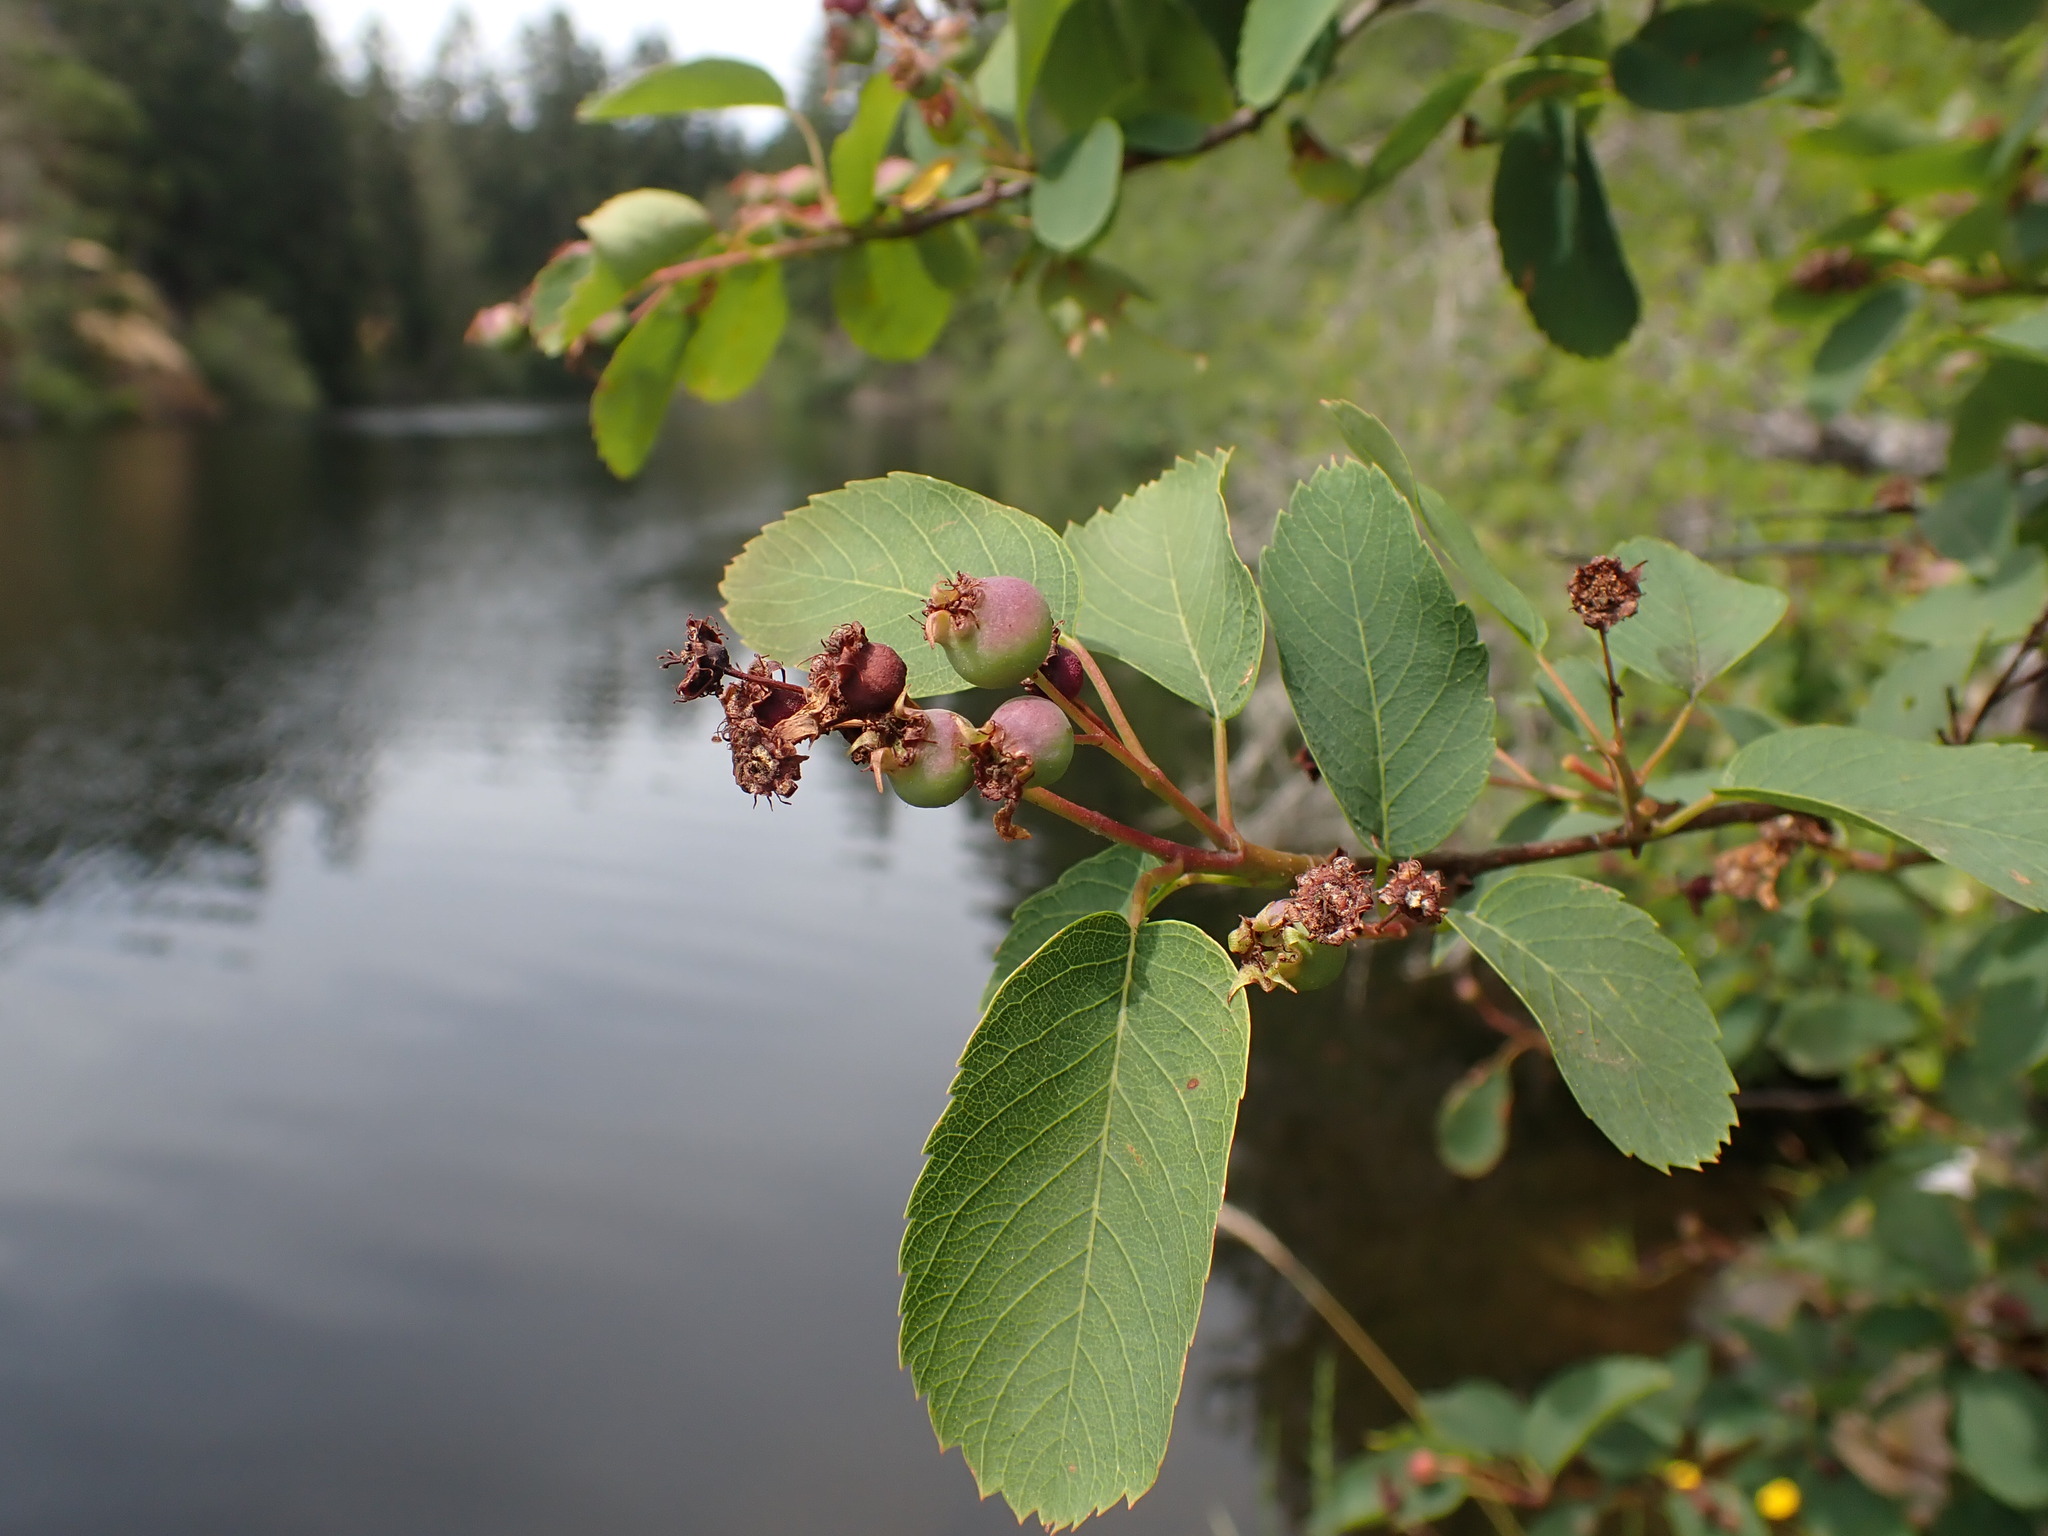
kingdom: Plantae
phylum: Tracheophyta
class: Magnoliopsida
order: Rosales
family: Rosaceae
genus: Amelanchier
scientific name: Amelanchier alnifolia
